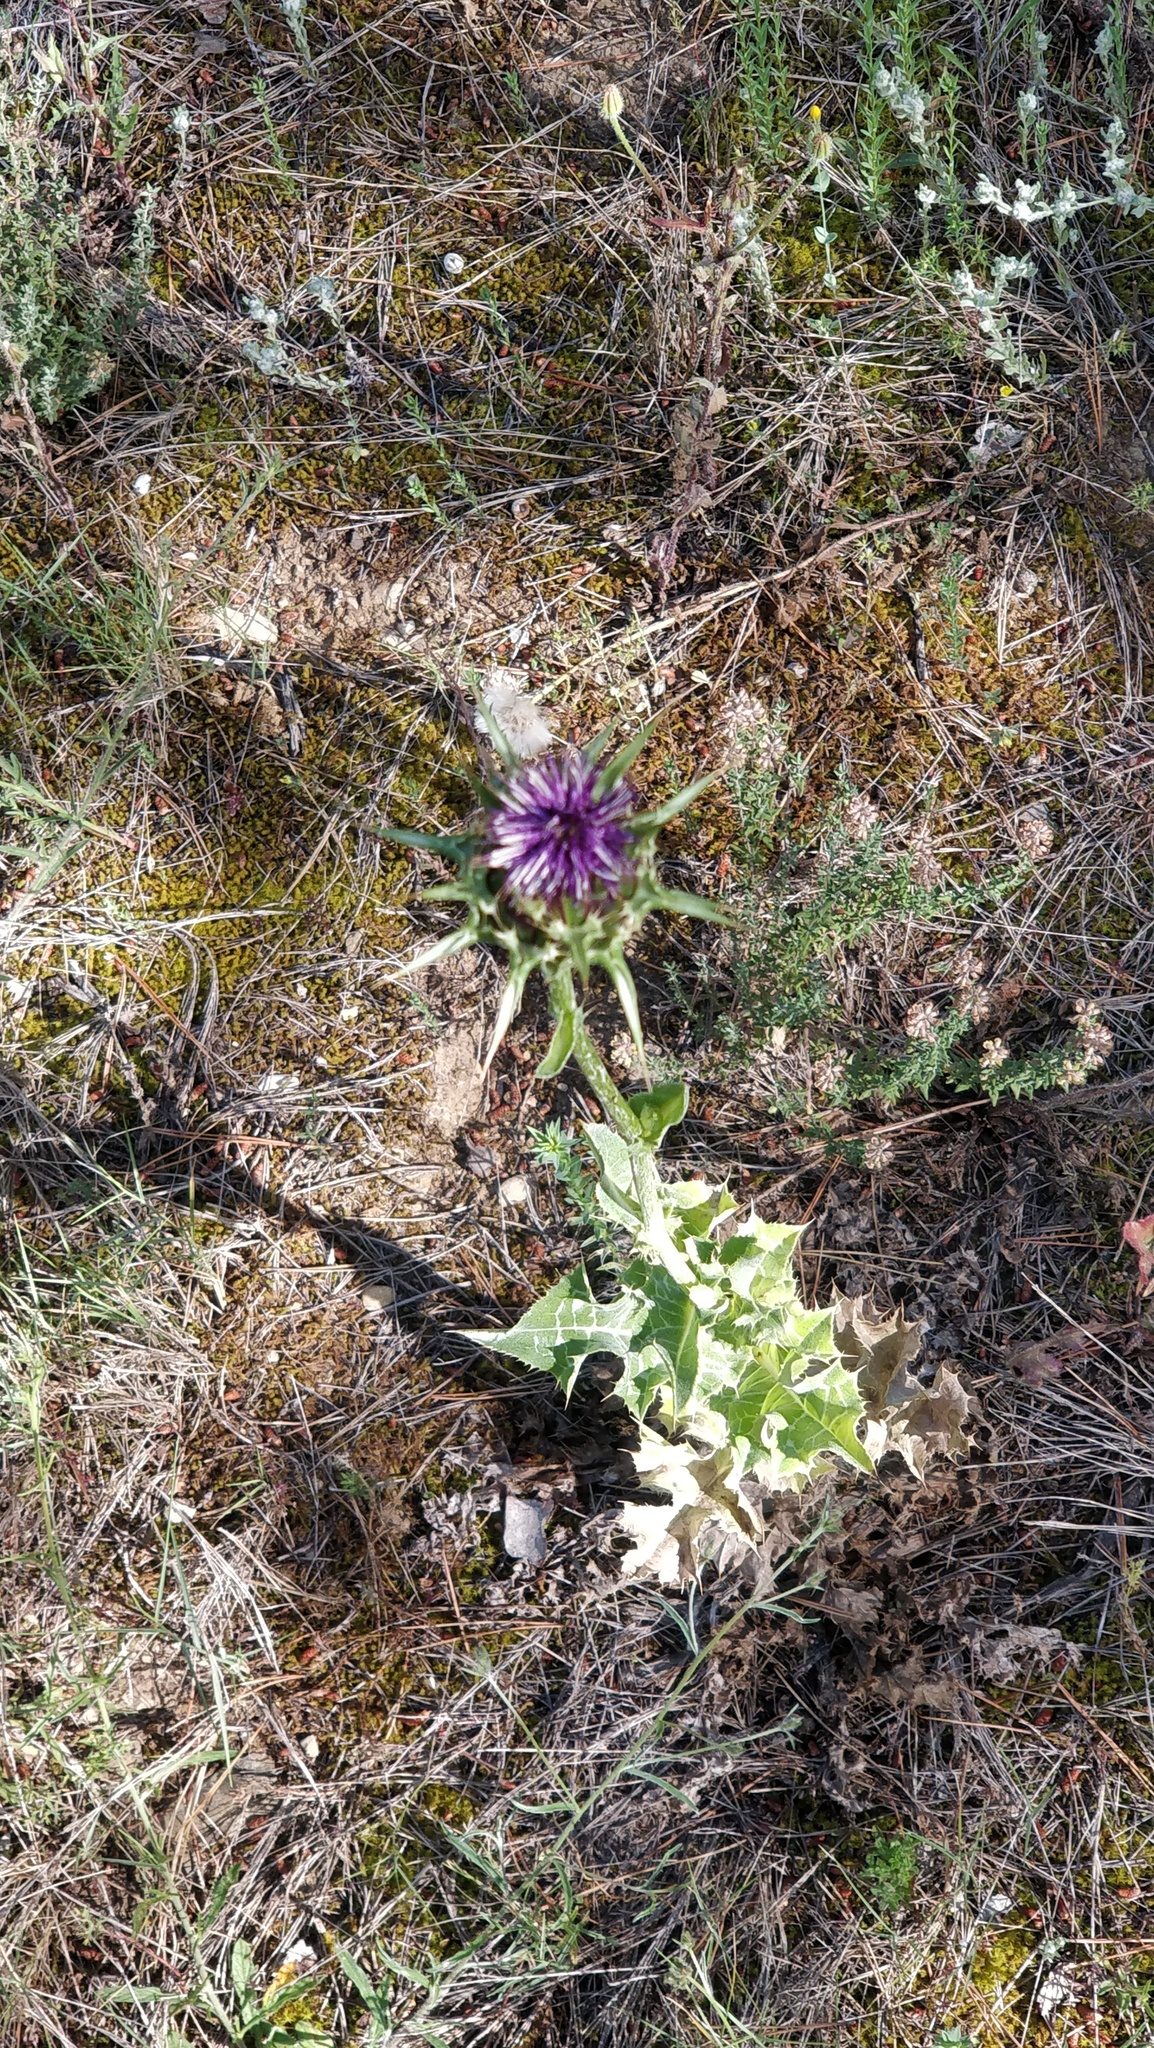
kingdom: Plantae
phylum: Tracheophyta
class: Magnoliopsida
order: Asterales
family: Asteraceae
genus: Silybum
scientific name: Silybum marianum
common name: Milk thistle
